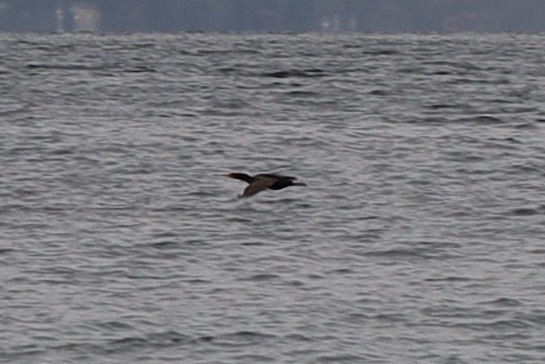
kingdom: Animalia
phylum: Chordata
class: Aves
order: Suliformes
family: Phalacrocoracidae
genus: Phalacrocorax
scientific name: Phalacrocorax auritus
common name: Double-crested cormorant
